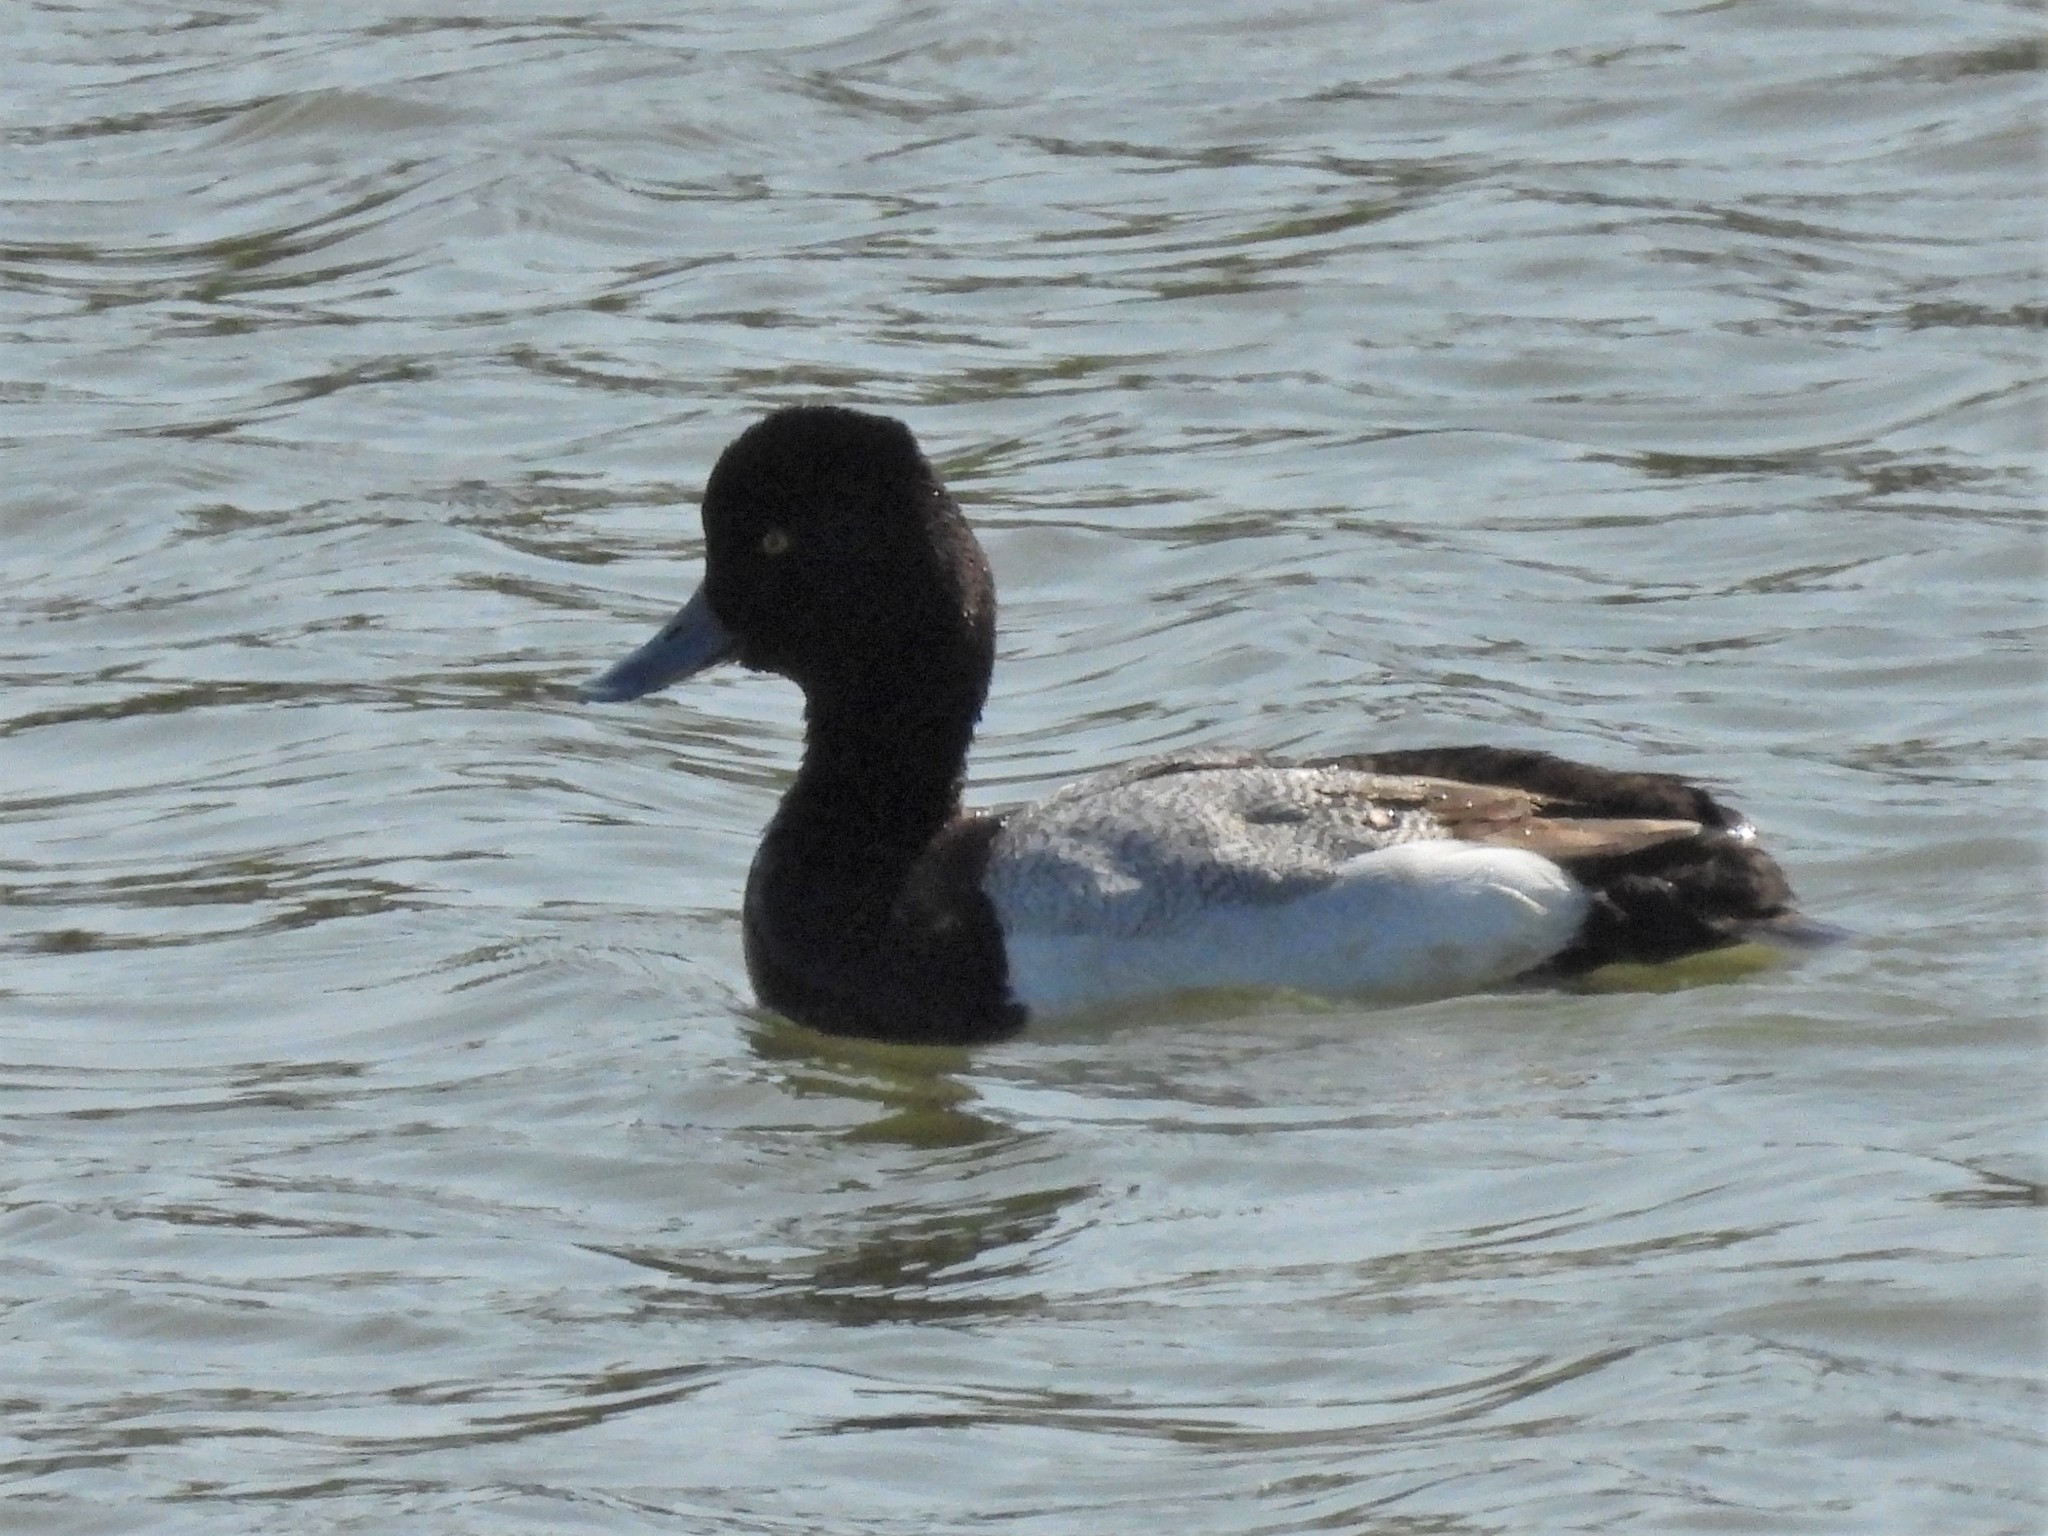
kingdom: Animalia
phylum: Chordata
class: Aves
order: Anseriformes
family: Anatidae
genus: Aythya
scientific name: Aythya affinis
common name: Lesser scaup
